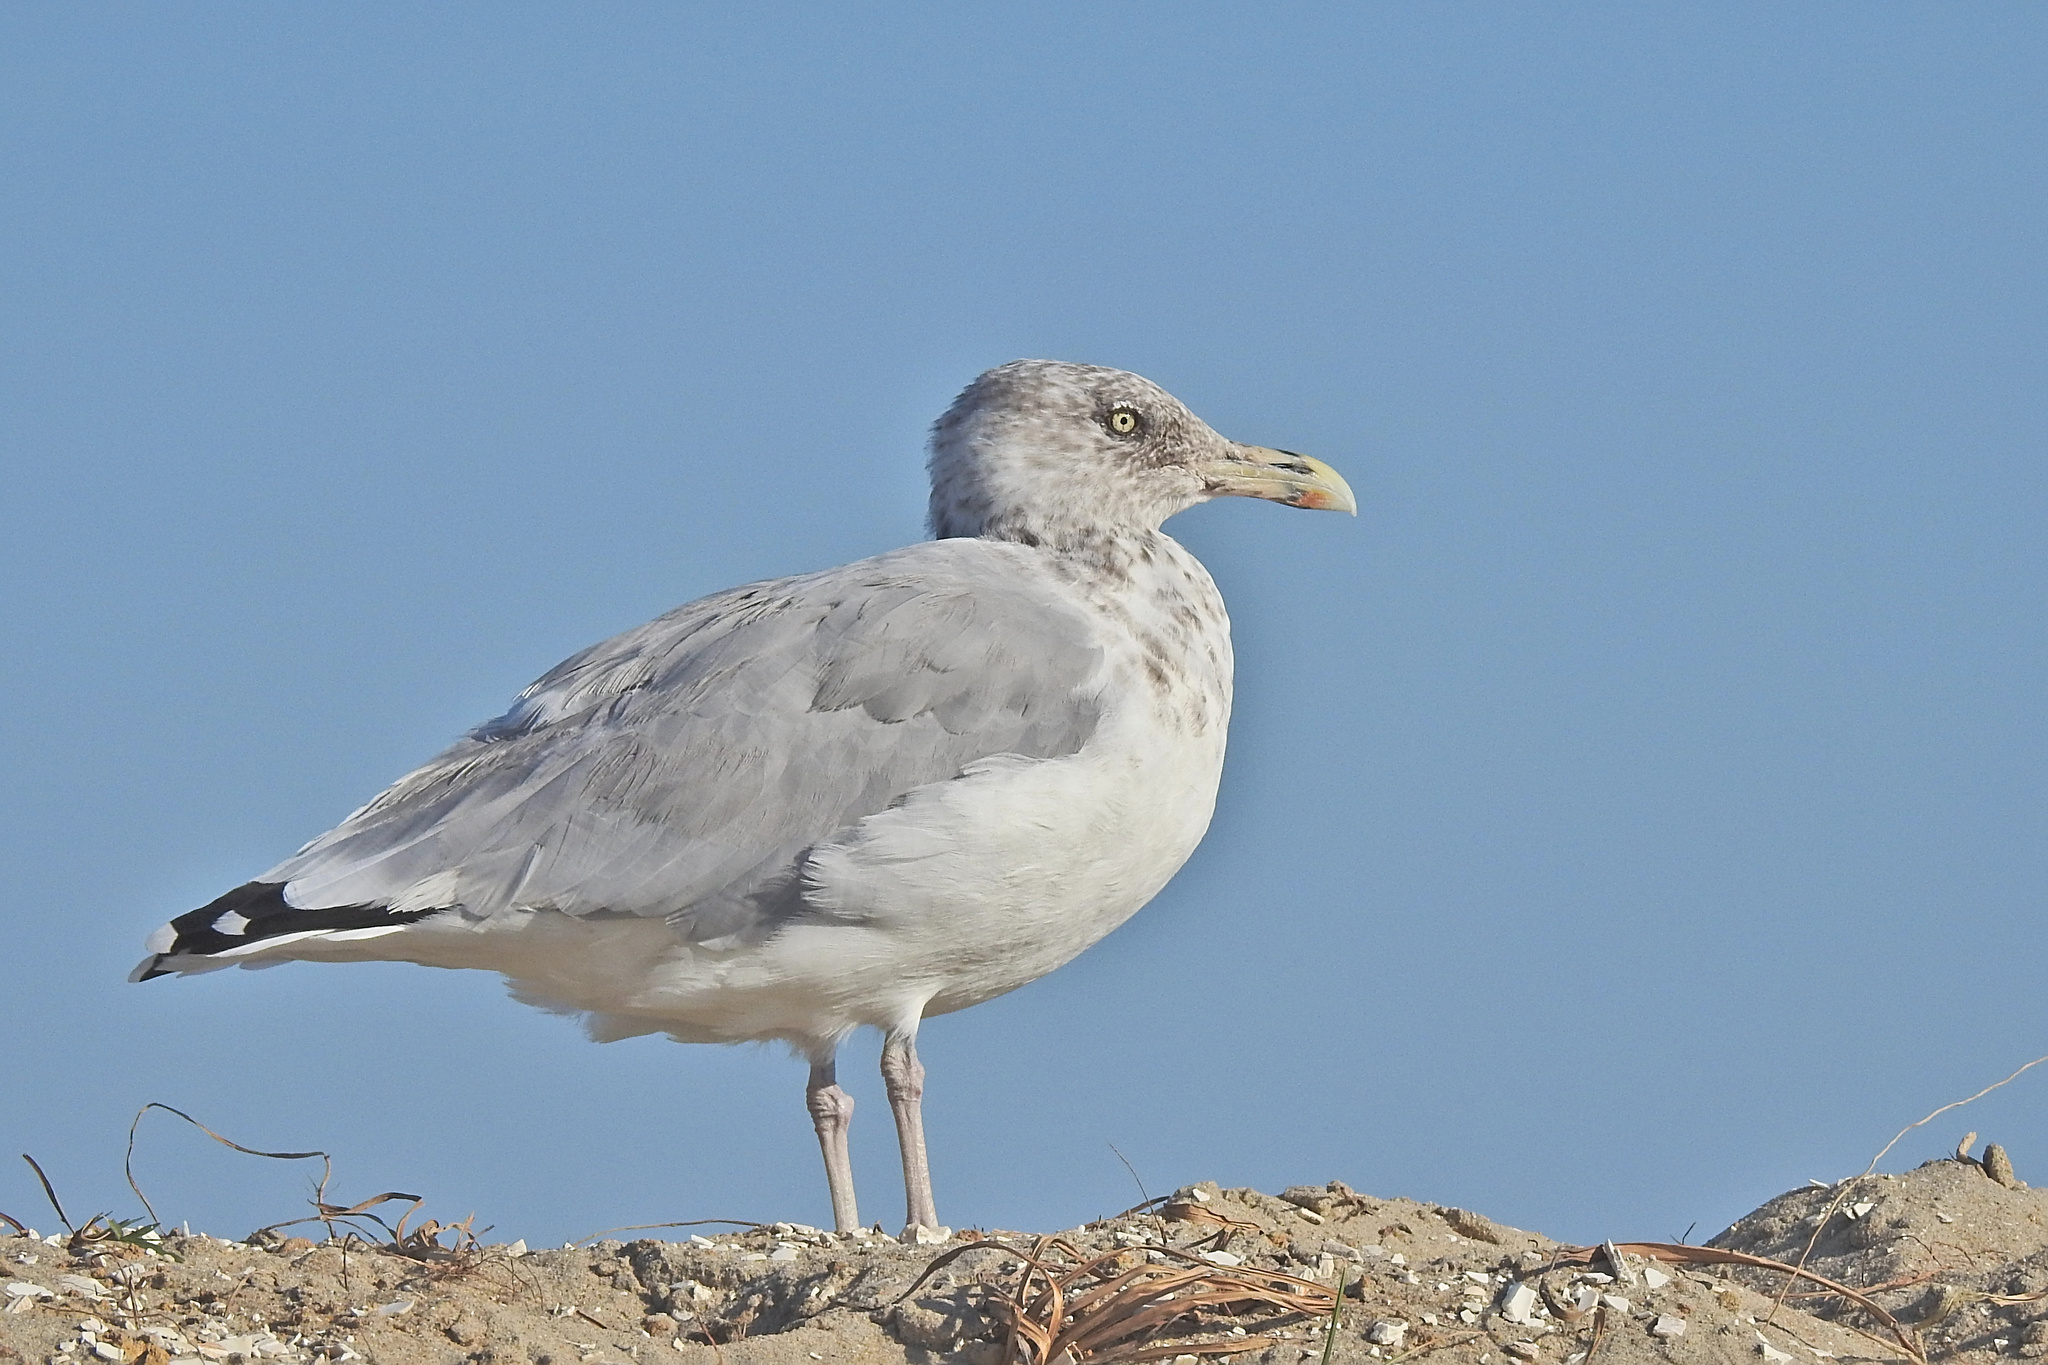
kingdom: Animalia
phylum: Chordata
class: Aves
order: Charadriiformes
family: Laridae
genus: Larus
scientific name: Larus argentatus
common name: Herring gull
